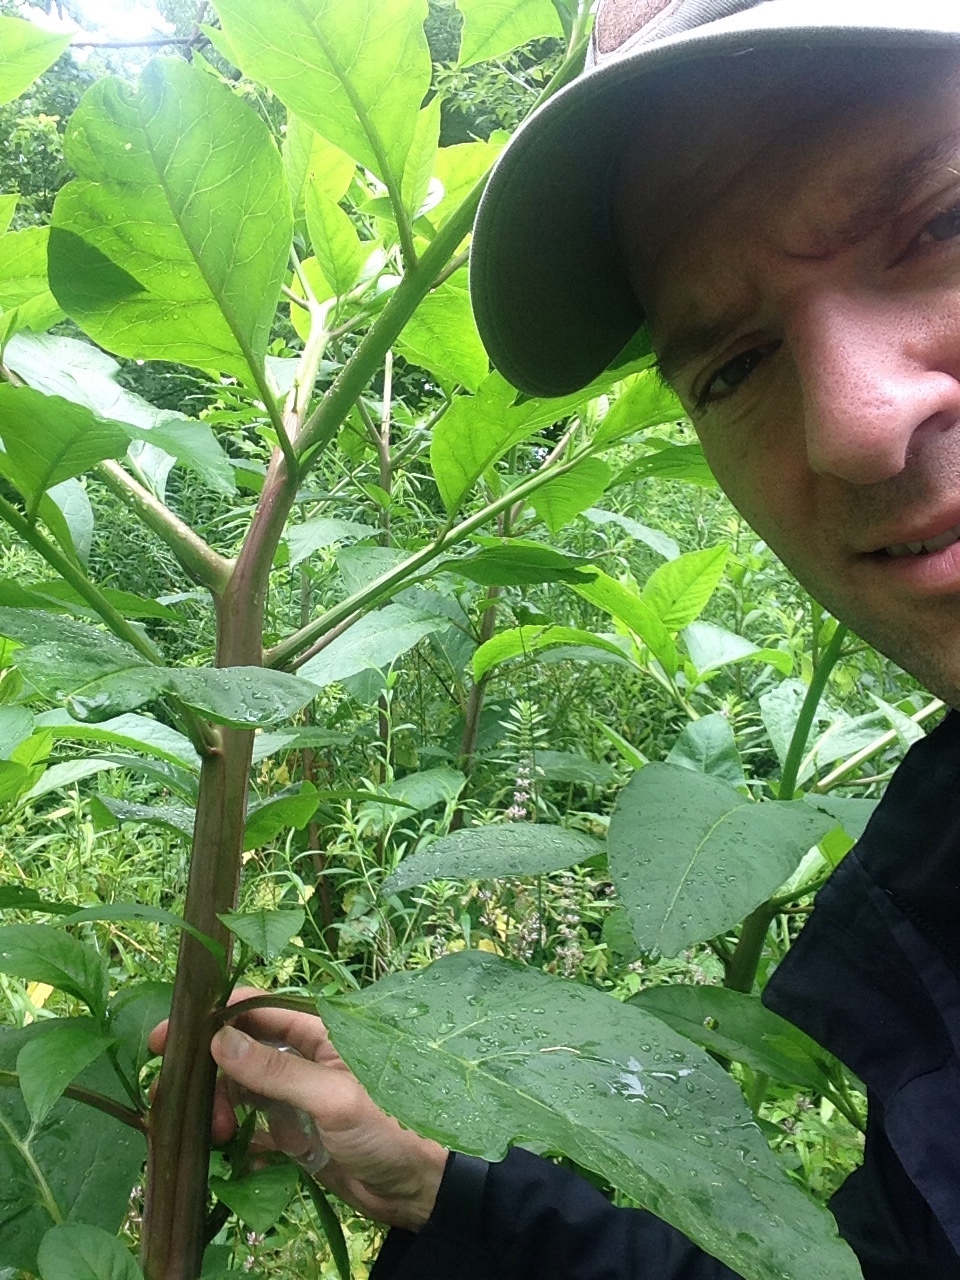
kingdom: Plantae
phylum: Tracheophyta
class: Magnoliopsida
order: Caryophyllales
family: Phytolaccaceae
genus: Phytolacca
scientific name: Phytolacca americana
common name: American pokeweed
